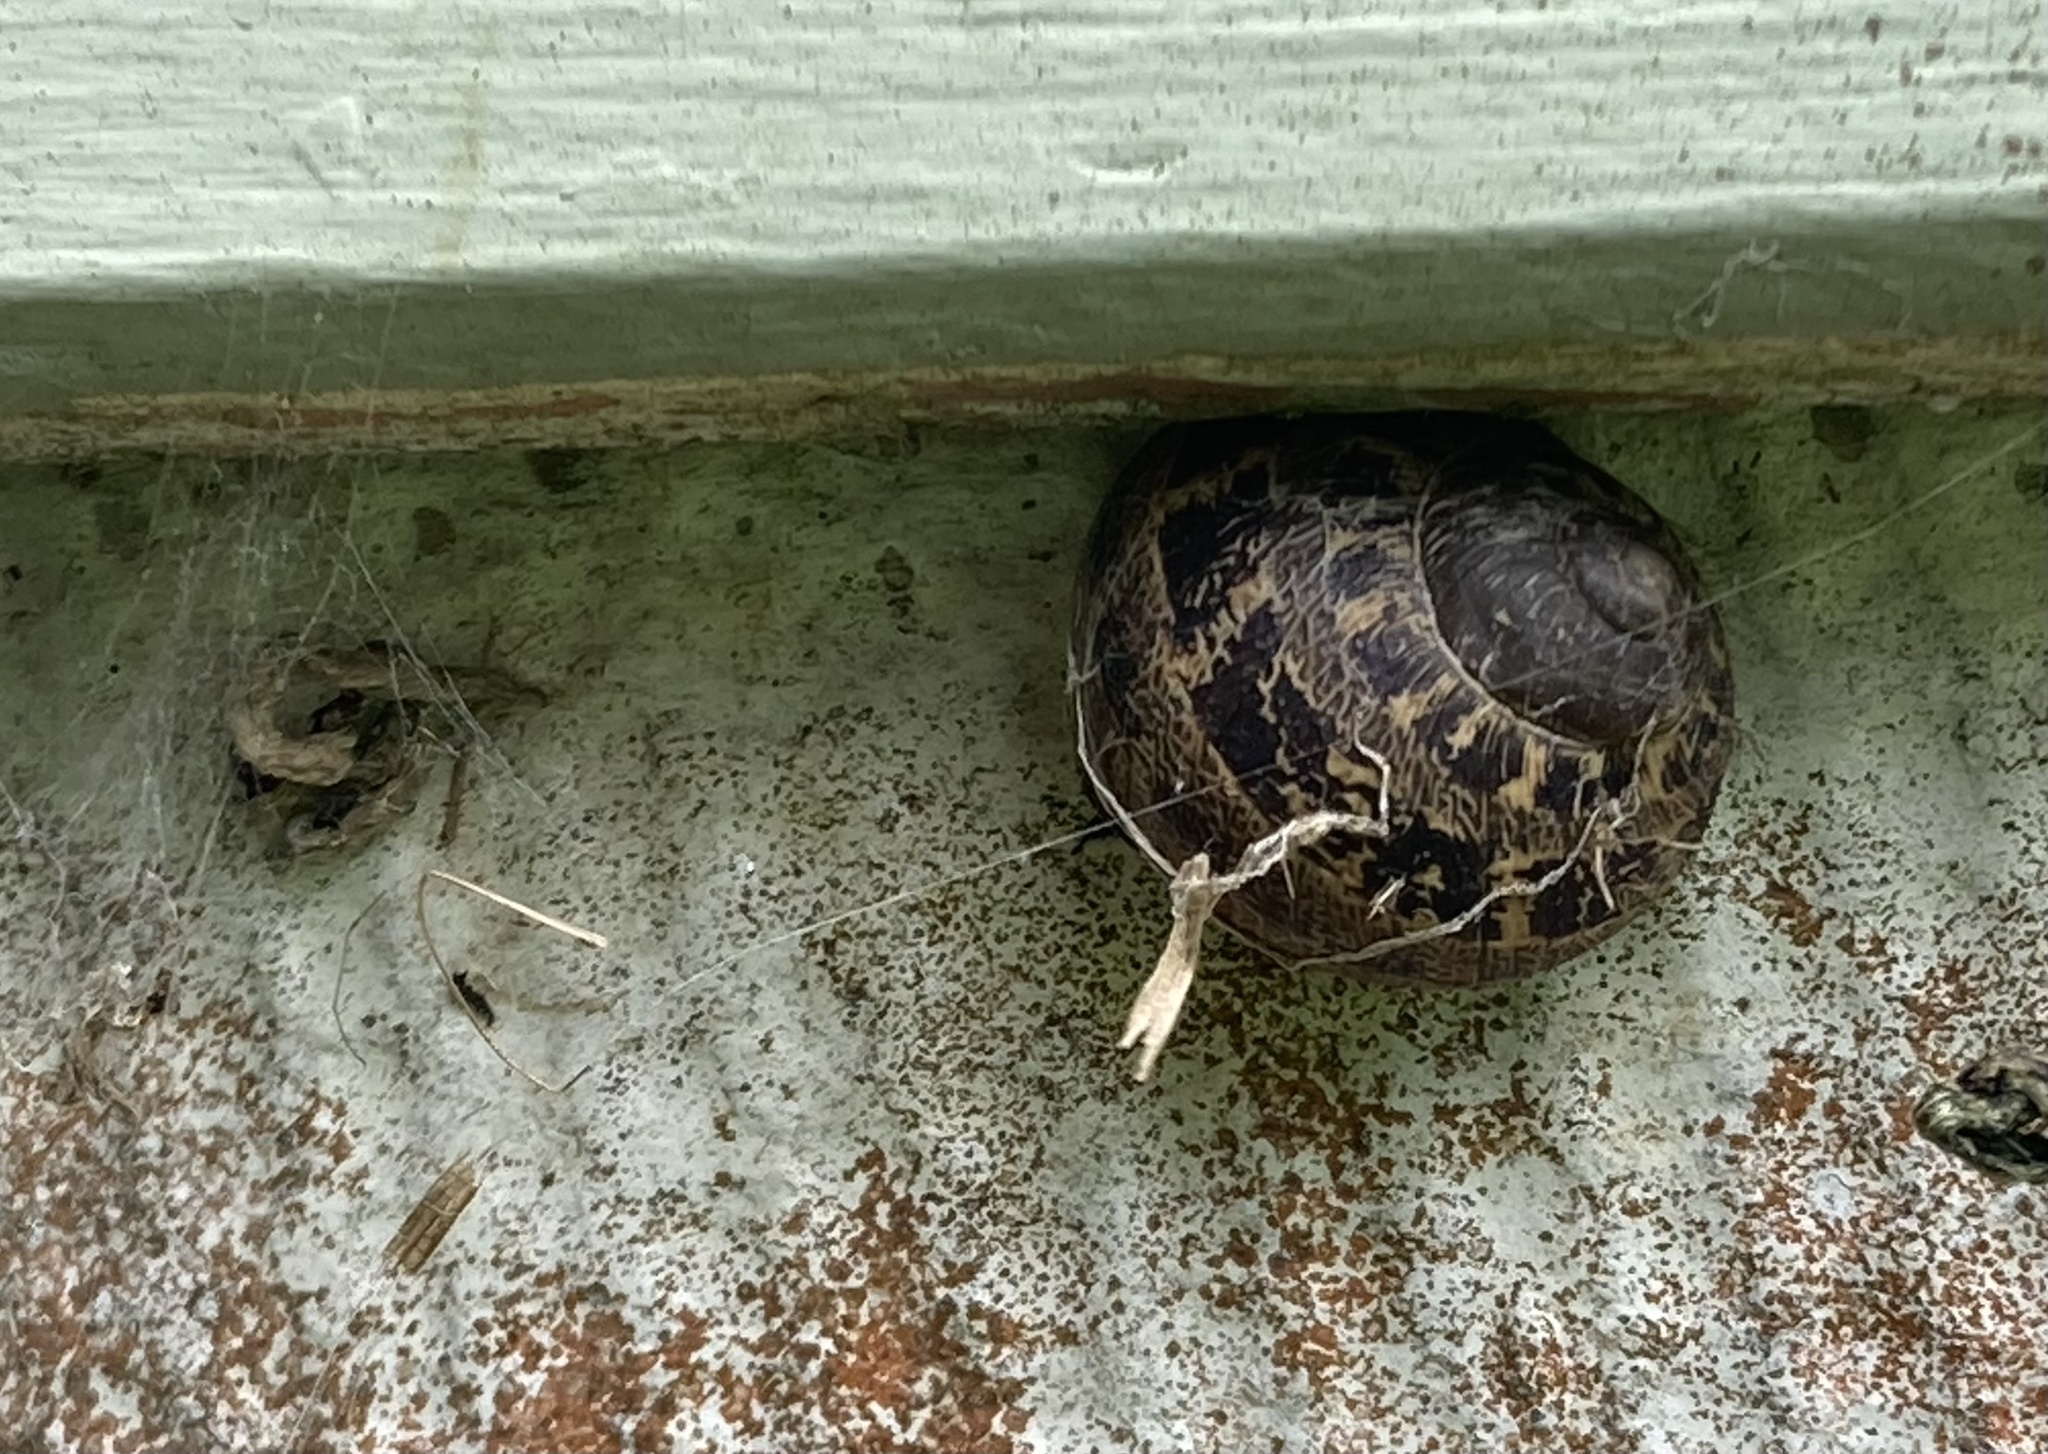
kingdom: Animalia
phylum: Mollusca
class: Gastropoda
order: Stylommatophora
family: Helicidae
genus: Cornu
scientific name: Cornu aspersum
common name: Brown garden snail
